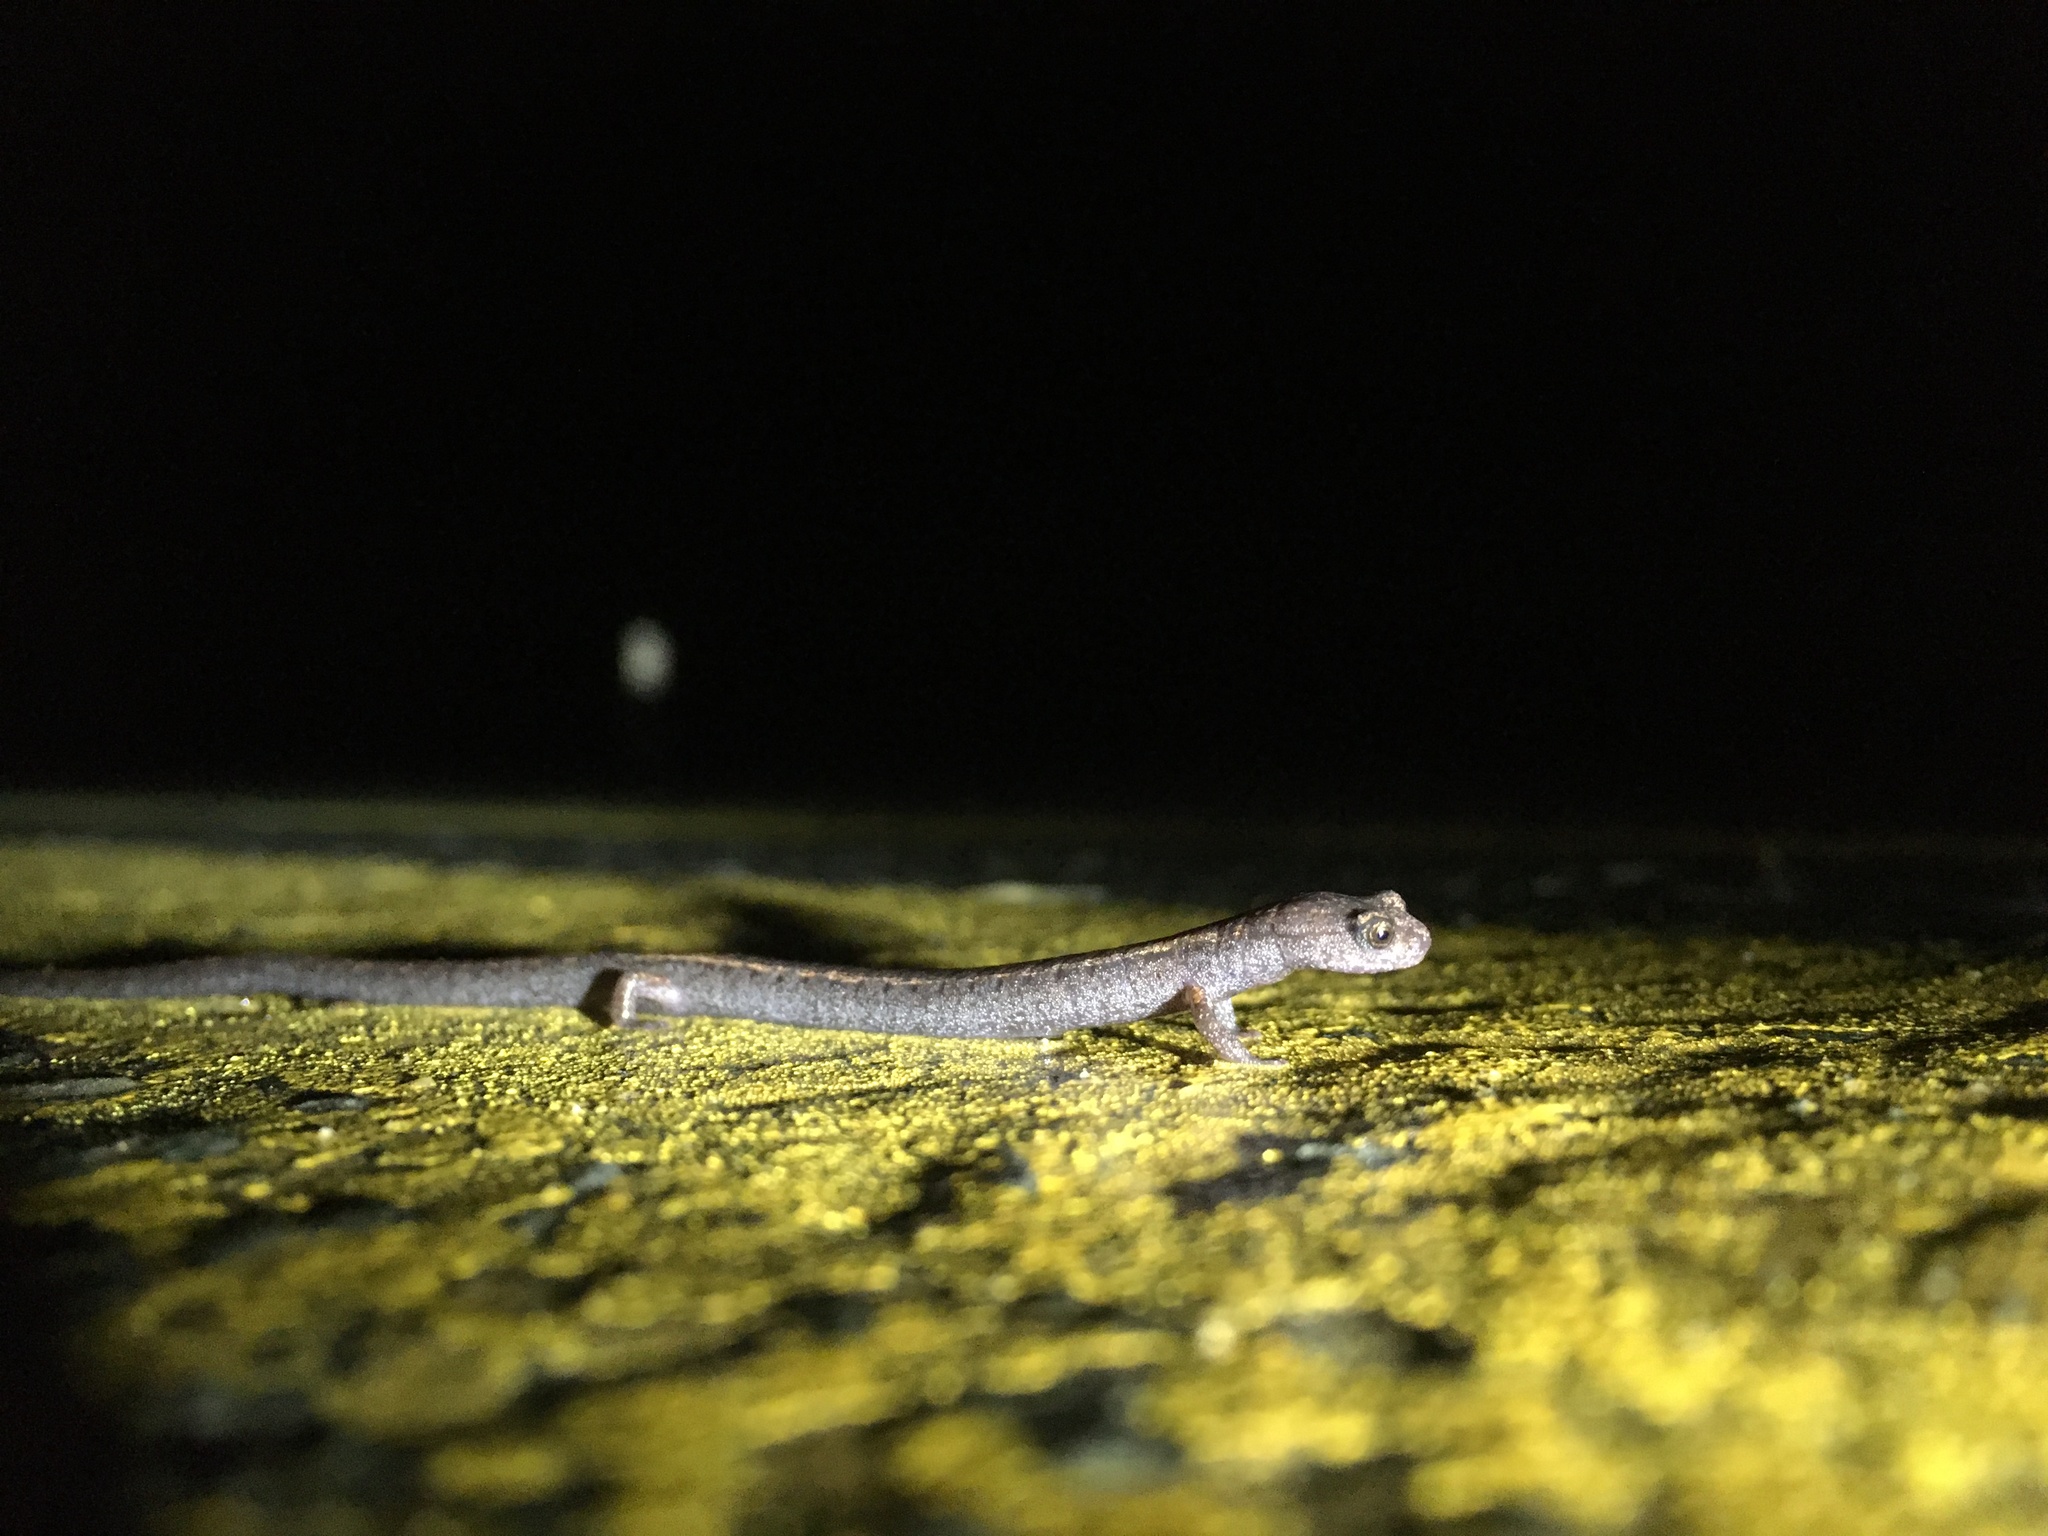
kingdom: Animalia
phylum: Chordata
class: Amphibia
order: Caudata
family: Plethodontidae
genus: Batrachoseps
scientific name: Batrachoseps attenuatus
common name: California slender salamander
